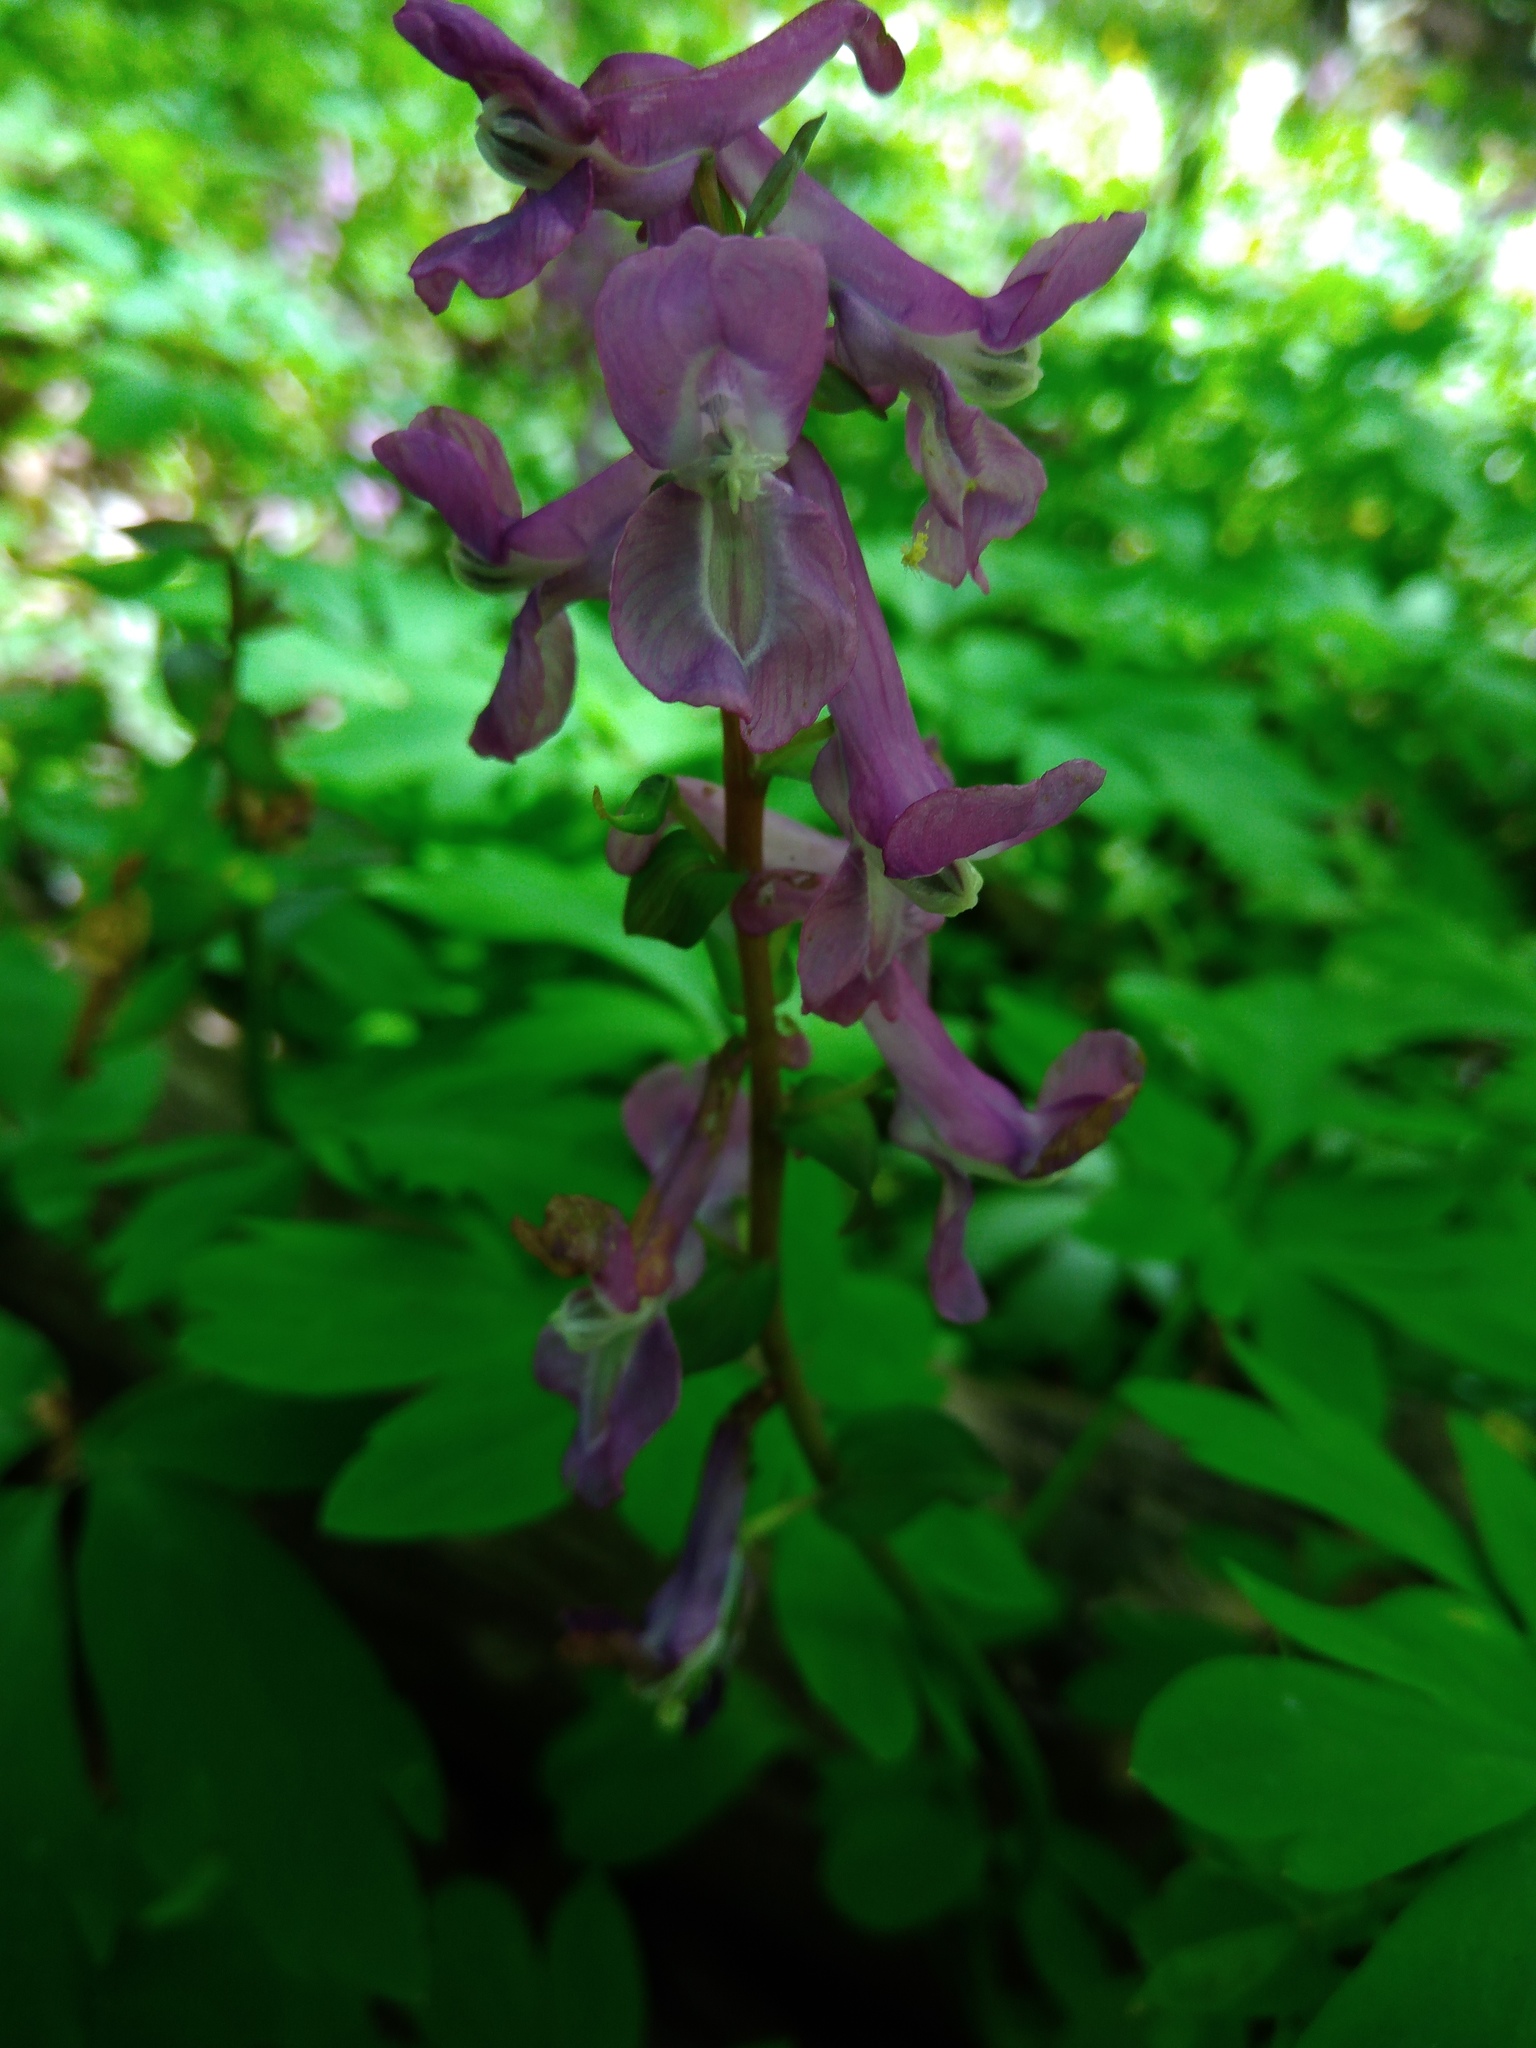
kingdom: Plantae
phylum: Tracheophyta
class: Magnoliopsida
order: Ranunculales
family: Papaveraceae
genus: Corydalis
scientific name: Corydalis cava
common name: Hollowroot
